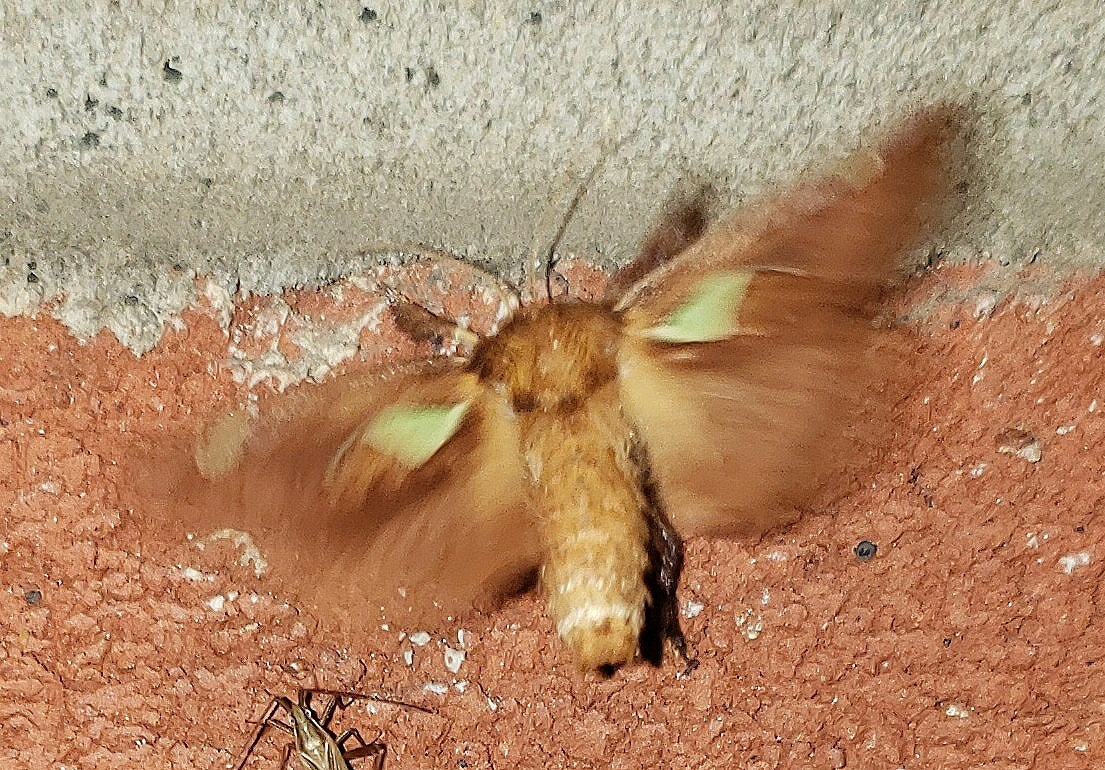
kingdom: Animalia
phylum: Arthropoda
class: Insecta
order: Lepidoptera
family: Limacodidae
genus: Euclea
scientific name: Euclea delphinii
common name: Spiny oak-slug moth
